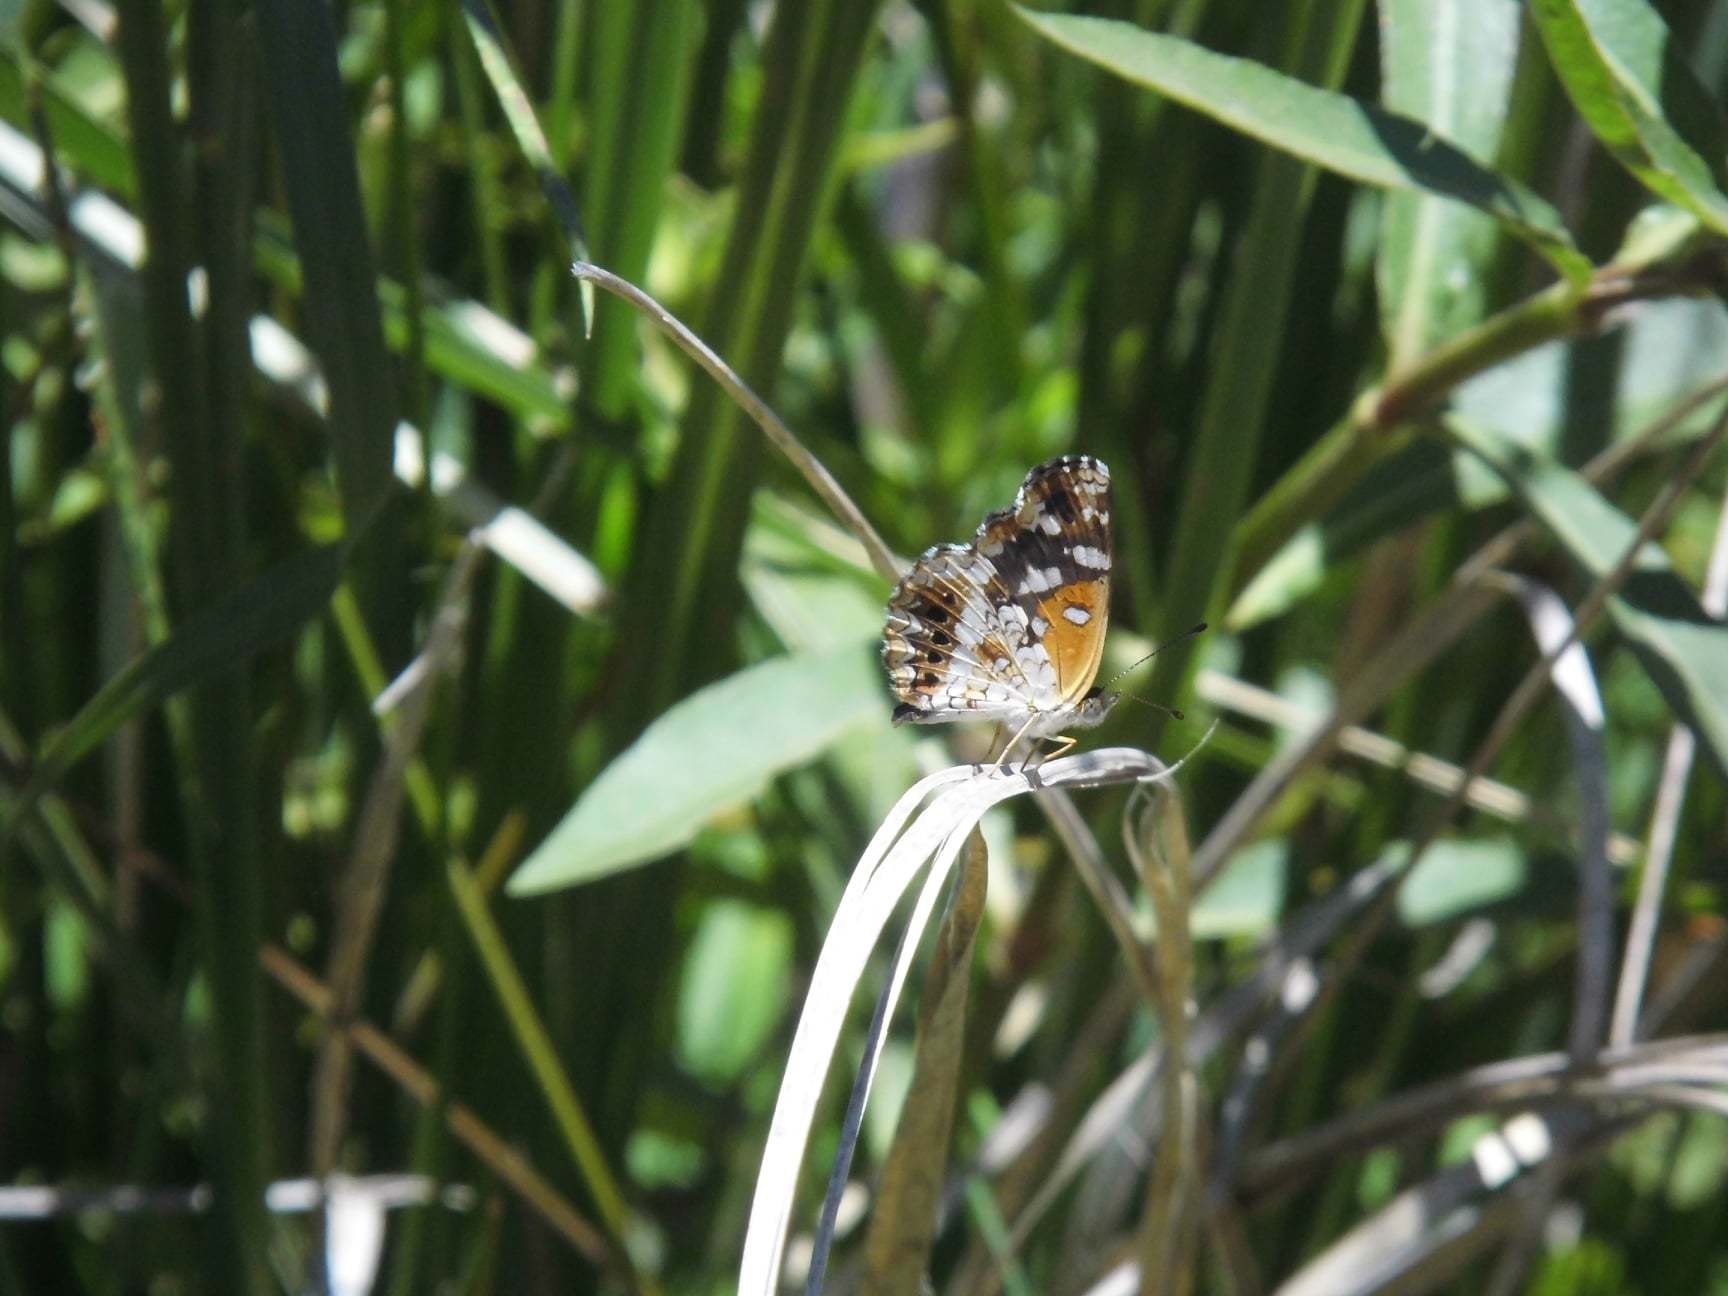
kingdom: Animalia
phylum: Arthropoda
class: Insecta
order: Lepidoptera
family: Nymphalidae
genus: Ortilia
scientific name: Ortilia ithra
